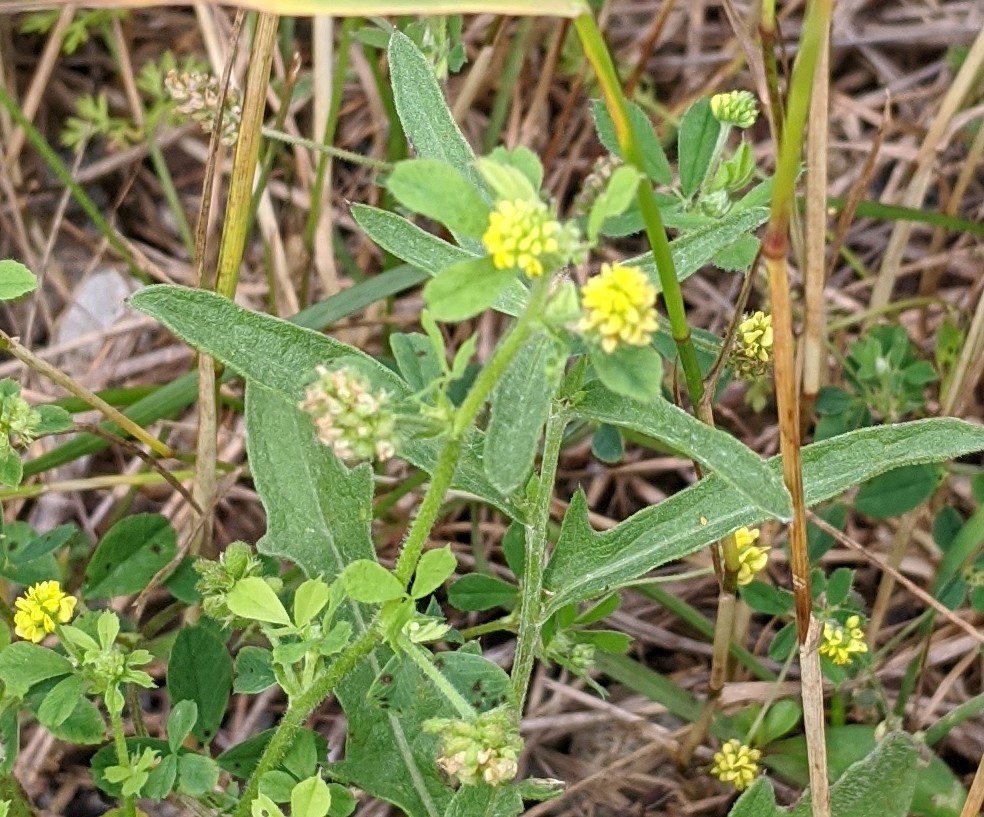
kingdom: Plantae
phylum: Tracheophyta
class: Magnoliopsida
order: Fabales
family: Fabaceae
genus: Medicago
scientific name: Medicago lupulina
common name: Black medick
